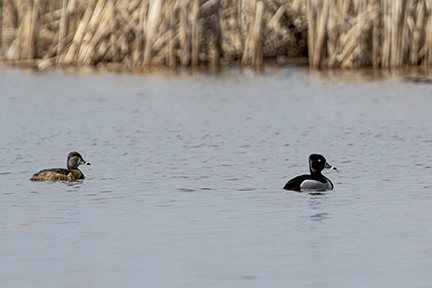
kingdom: Animalia
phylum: Chordata
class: Aves
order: Anseriformes
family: Anatidae
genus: Aythya
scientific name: Aythya collaris
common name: Ring-necked duck
